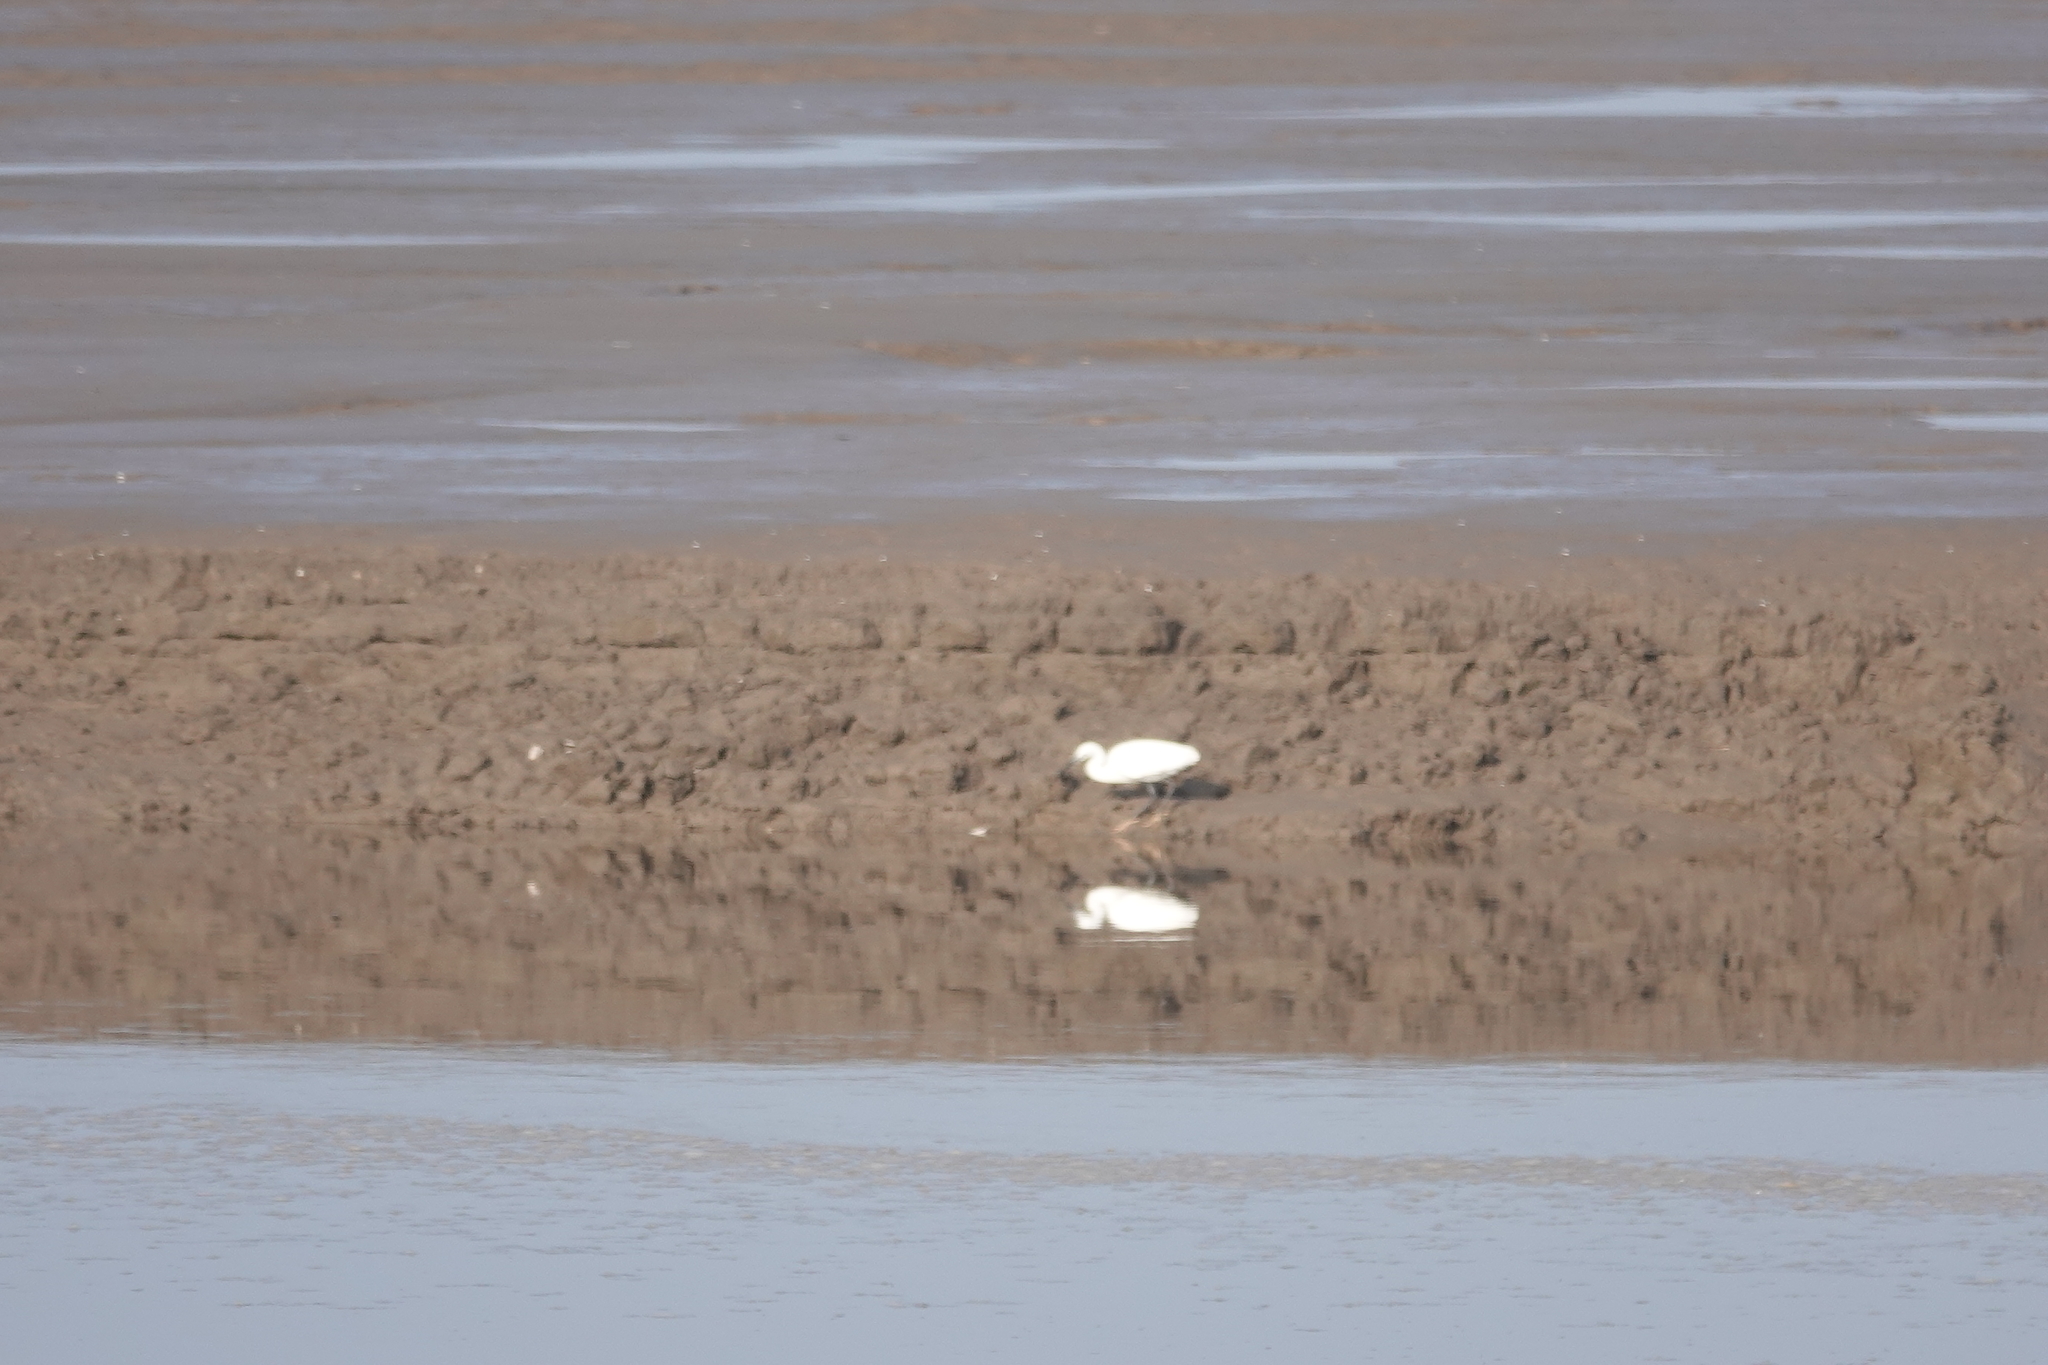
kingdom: Animalia
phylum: Chordata
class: Aves
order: Pelecaniformes
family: Ardeidae
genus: Egretta
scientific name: Egretta garzetta
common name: Little egret
